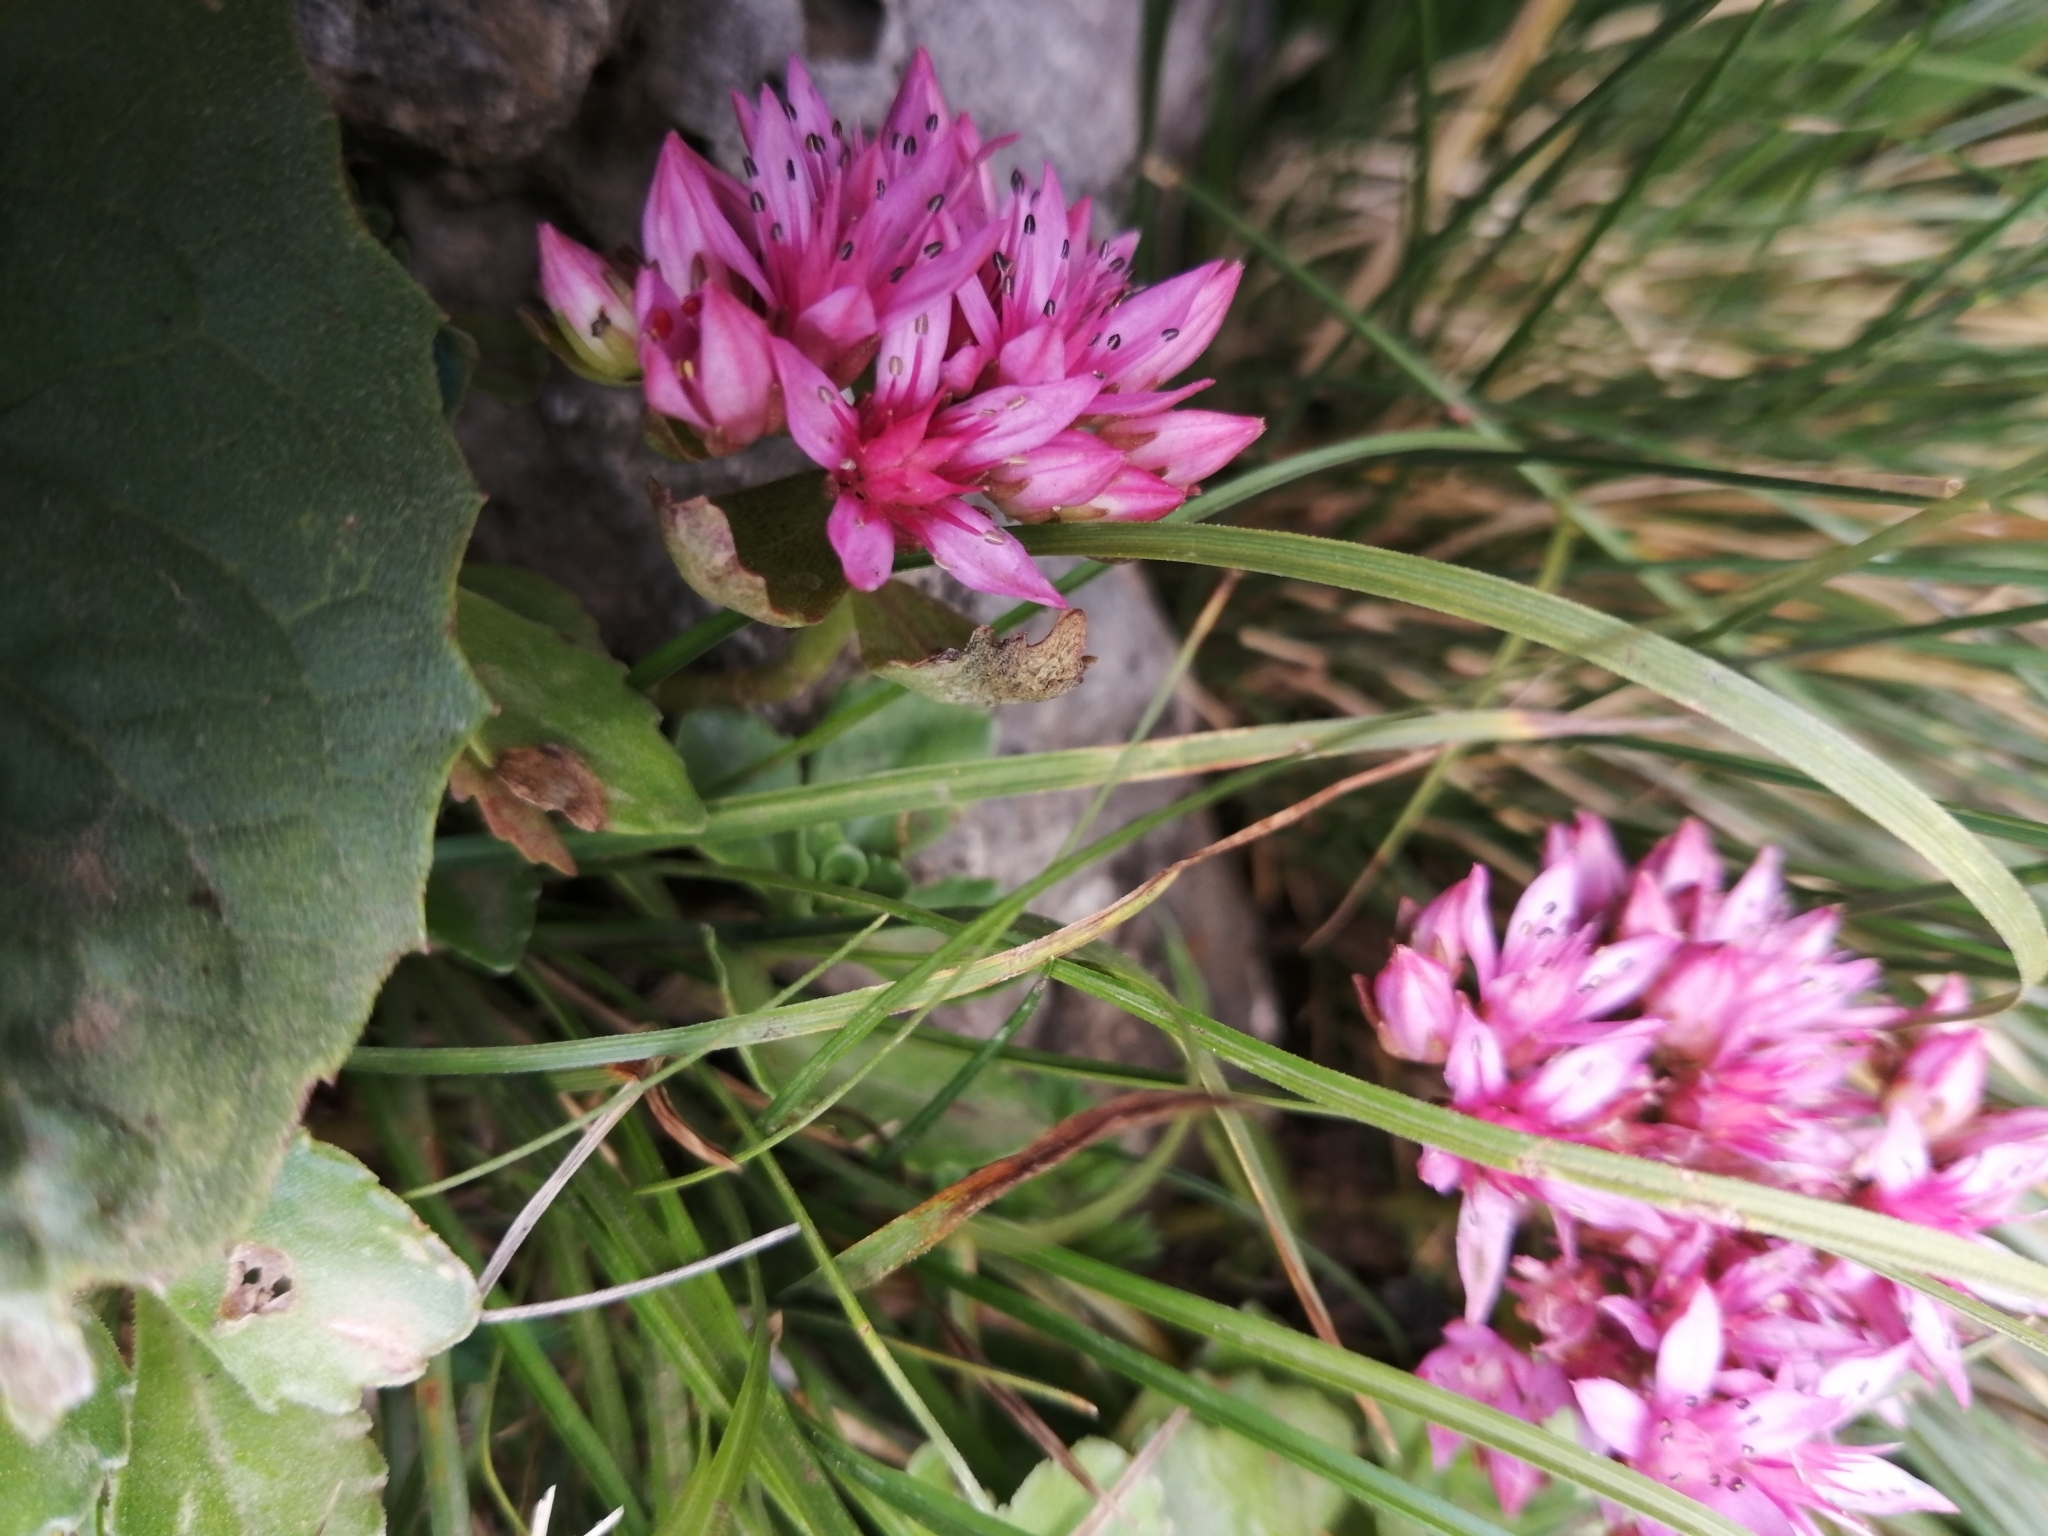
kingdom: Plantae
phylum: Tracheophyta
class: Magnoliopsida
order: Saxifragales
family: Crassulaceae
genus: Phedimus
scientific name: Phedimus spurius
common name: Caucasian stonecrop
